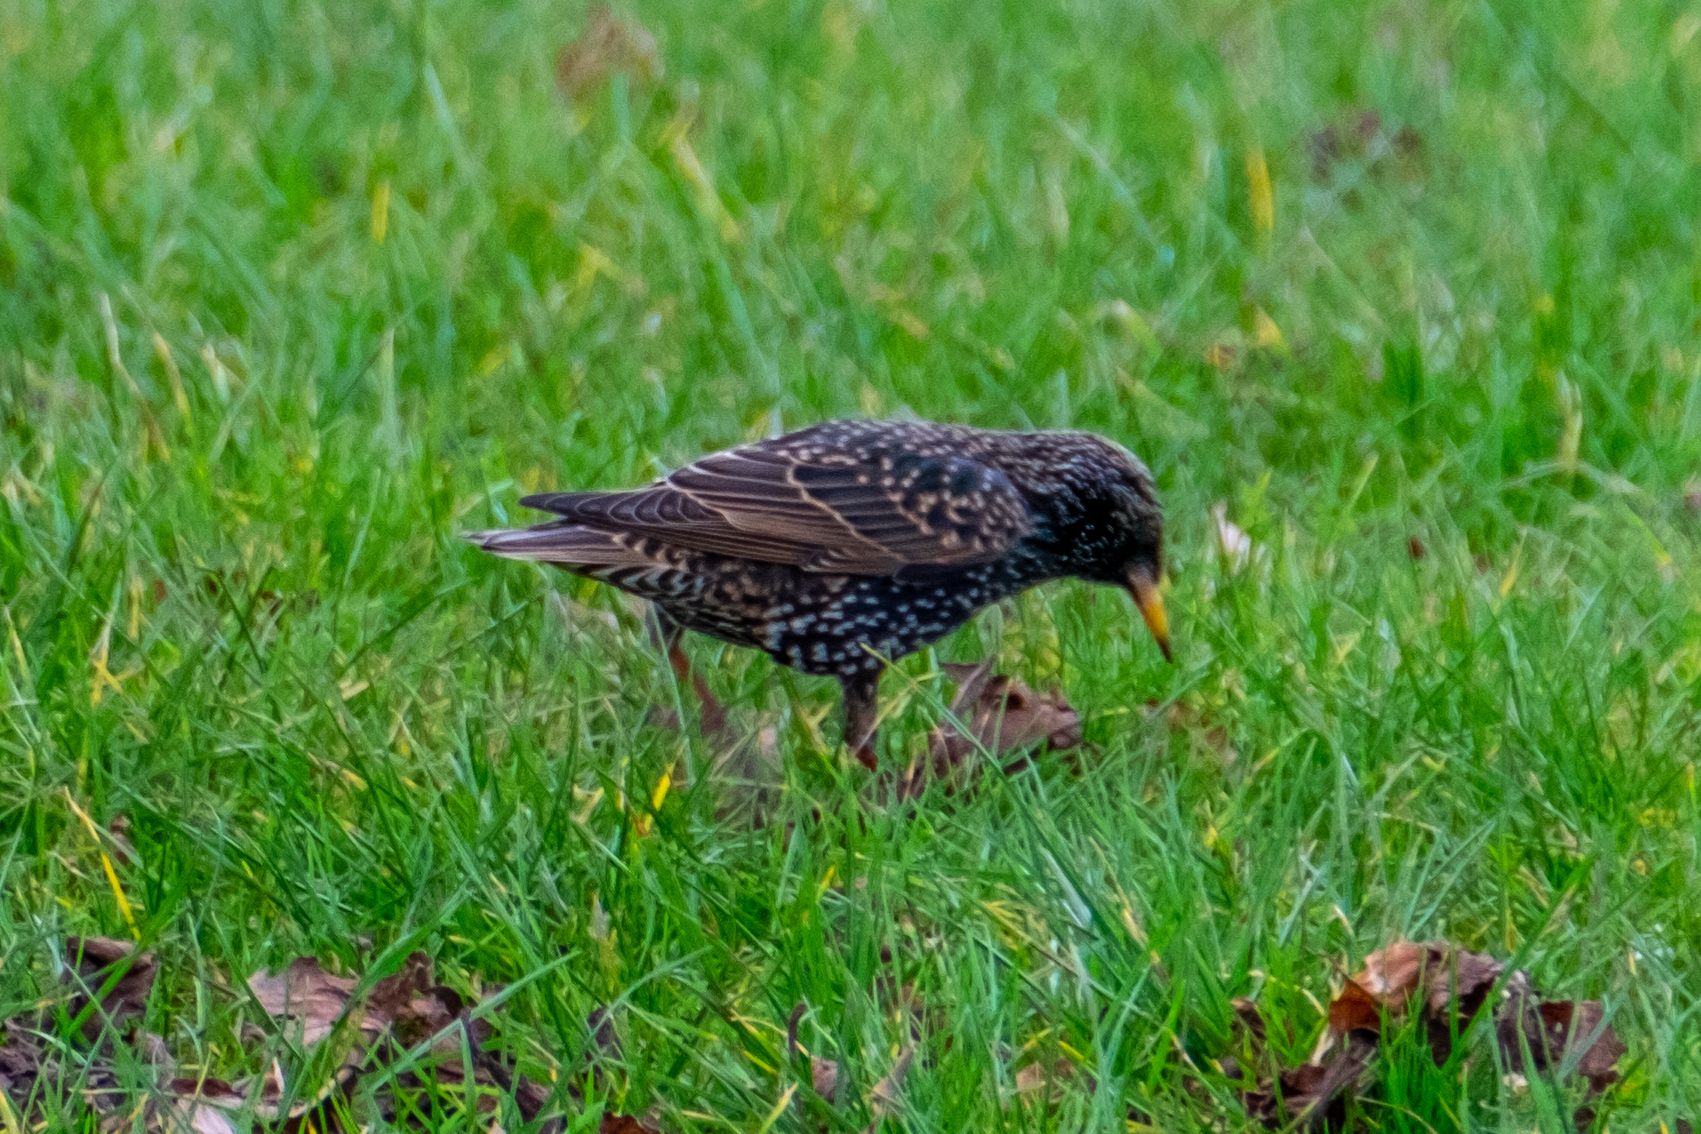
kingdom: Animalia
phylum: Chordata
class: Aves
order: Passeriformes
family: Sturnidae
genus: Sturnus
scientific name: Sturnus vulgaris
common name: Common starling
